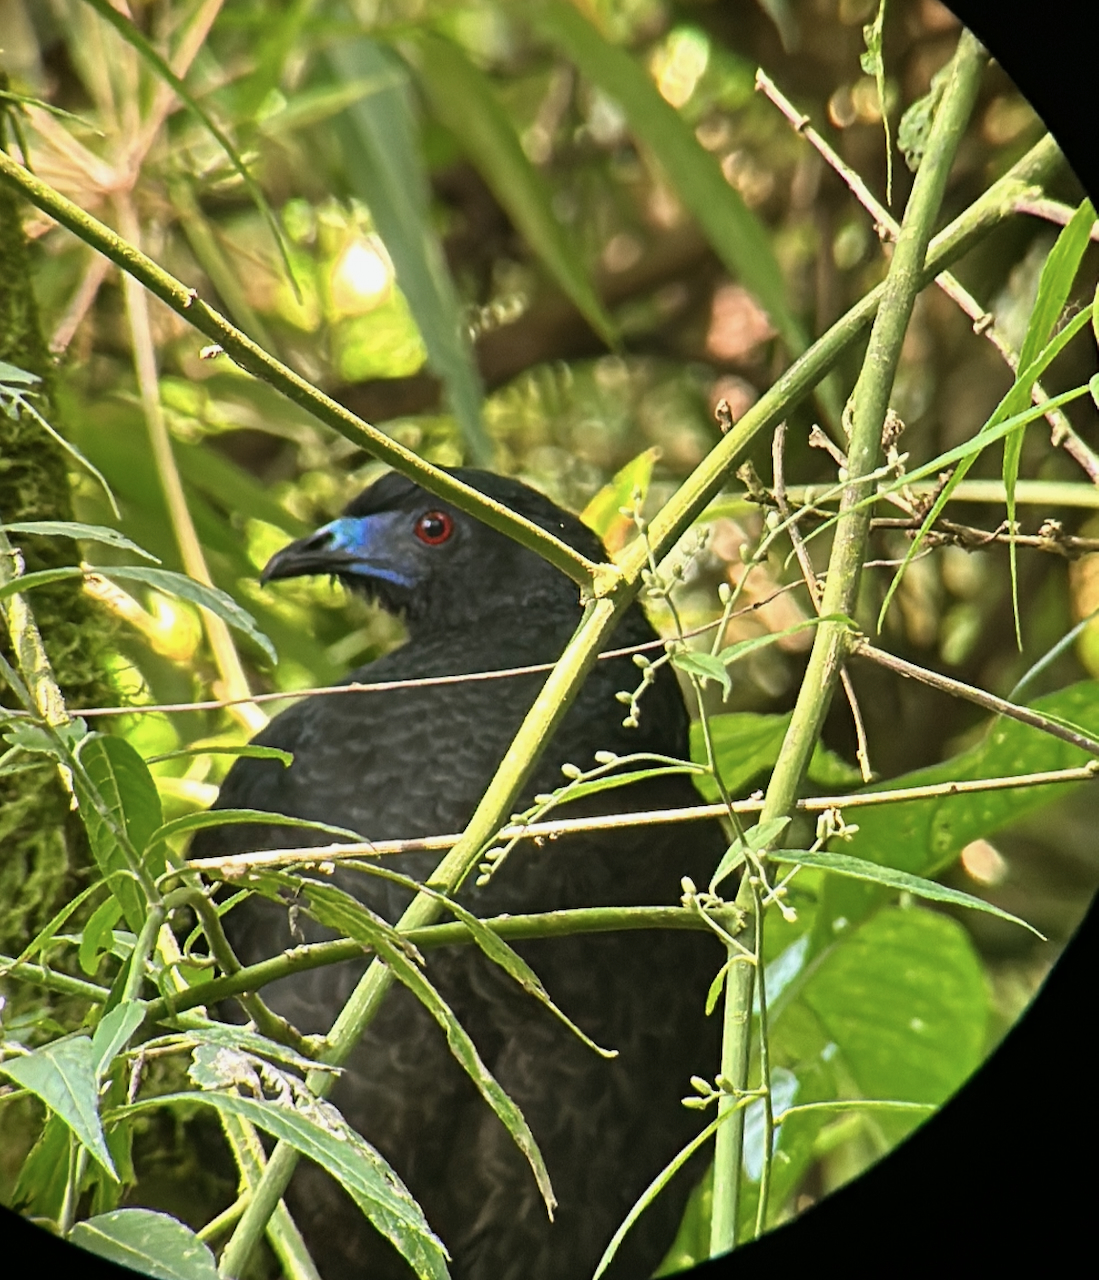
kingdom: Animalia
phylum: Chordata
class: Aves
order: Galliformes
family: Cracidae
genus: Chamaepetes
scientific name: Chamaepetes unicolor
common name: Black guan
